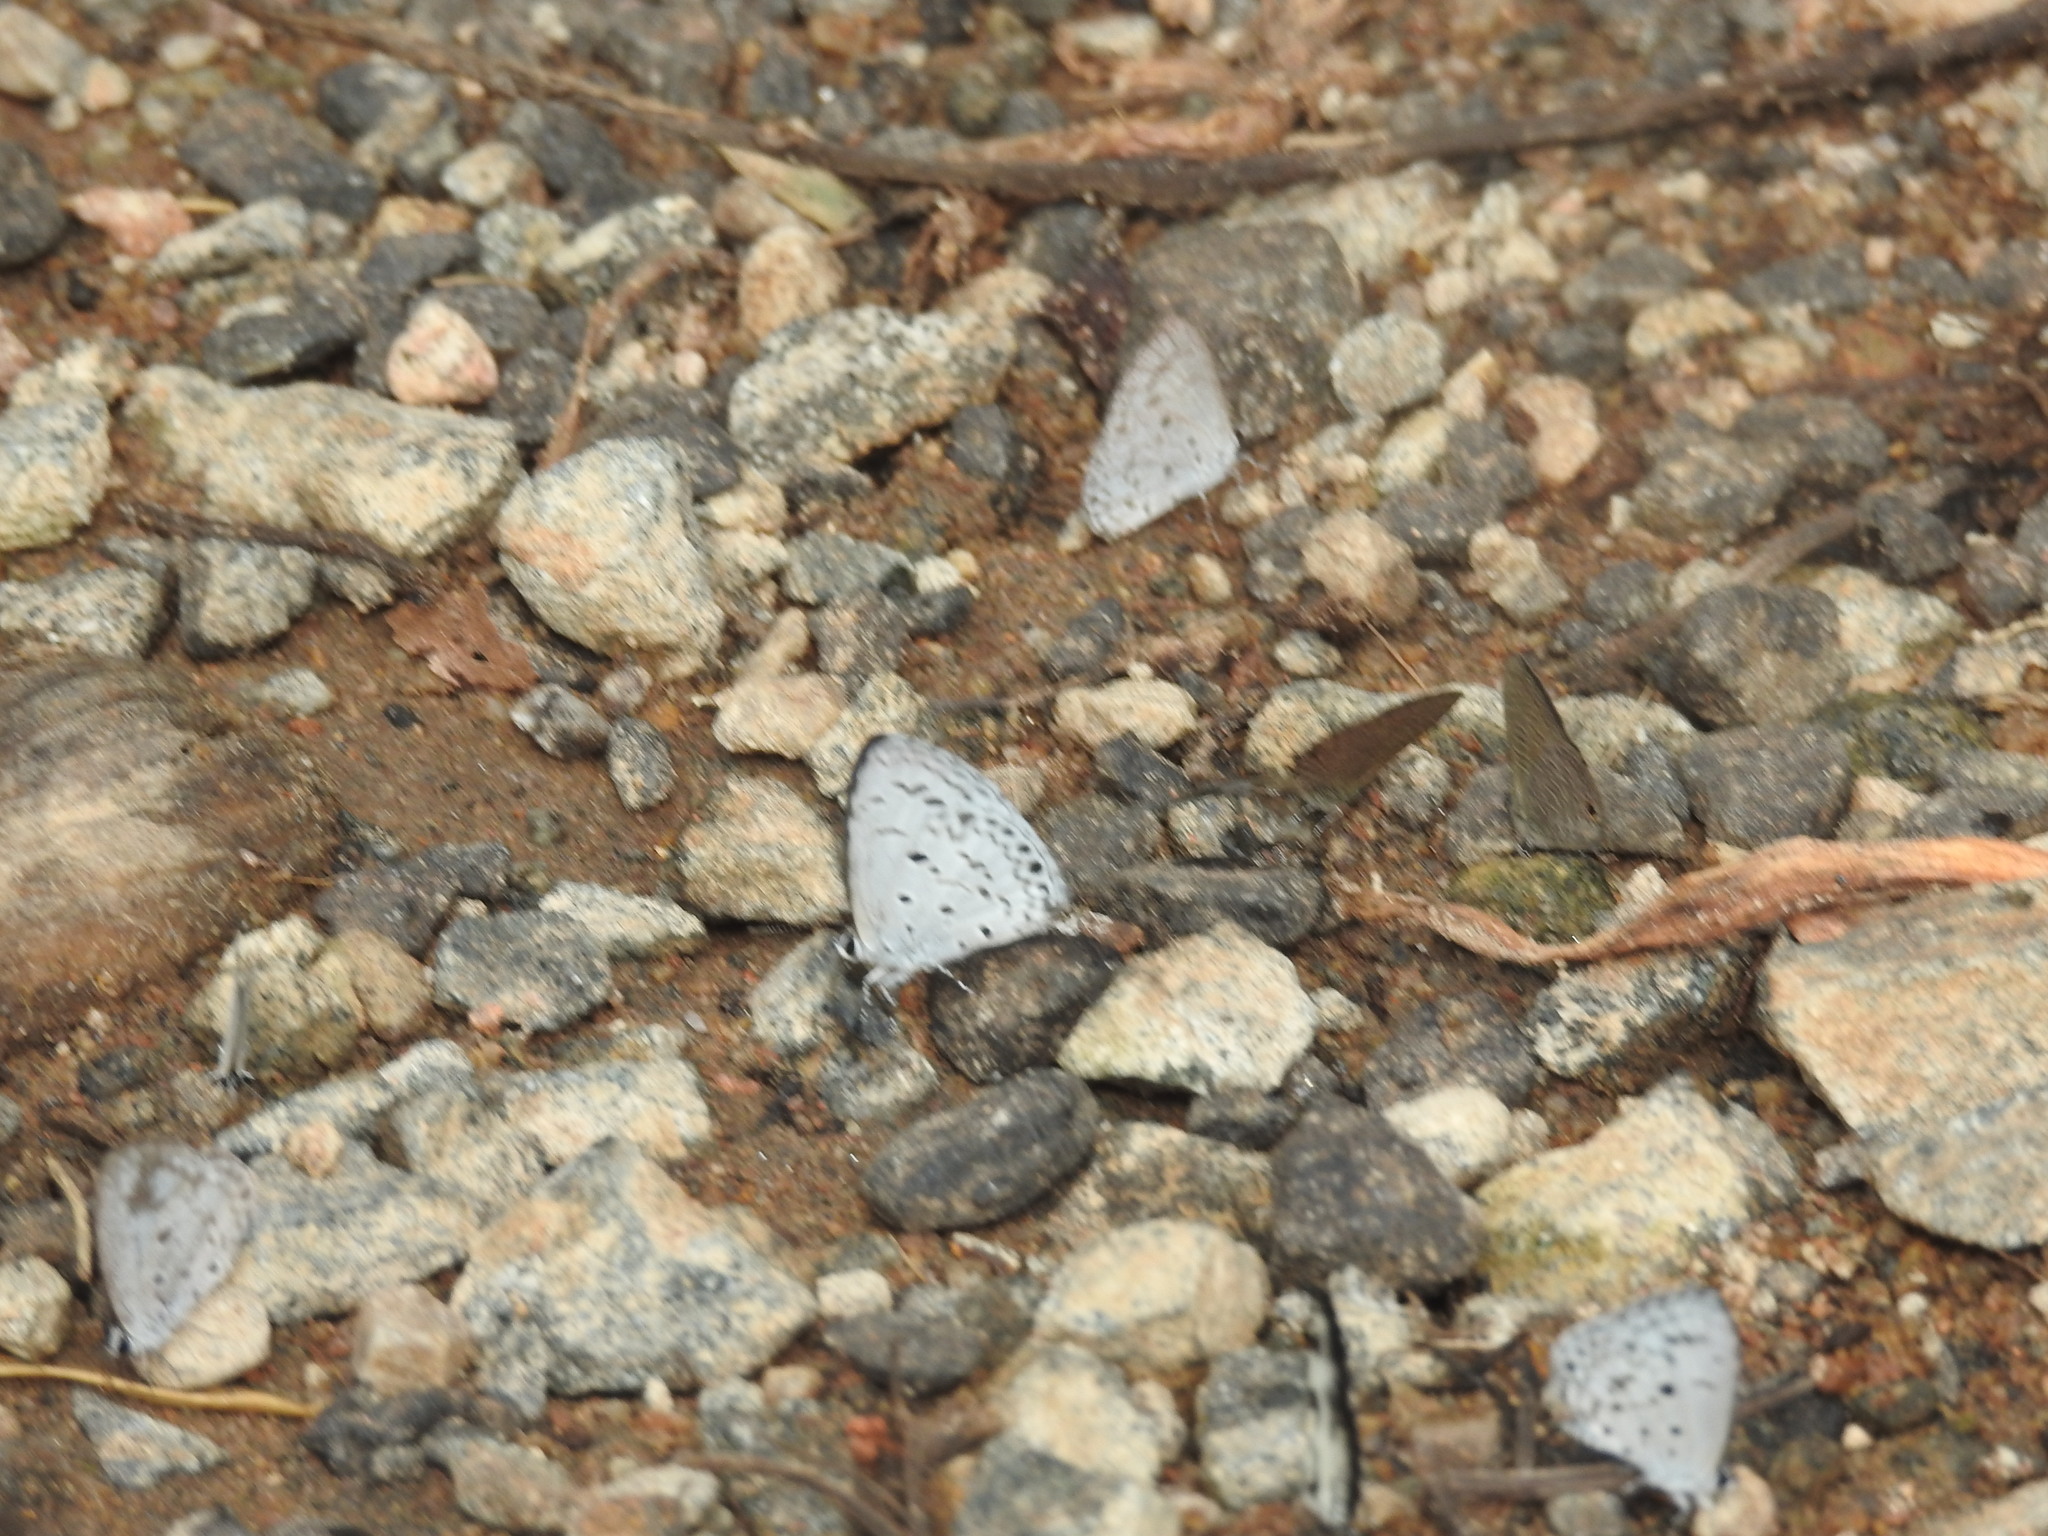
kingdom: Animalia
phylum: Arthropoda
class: Insecta
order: Lepidoptera
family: Lycaenidae
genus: Acytolepis
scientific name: Acytolepis puspa
